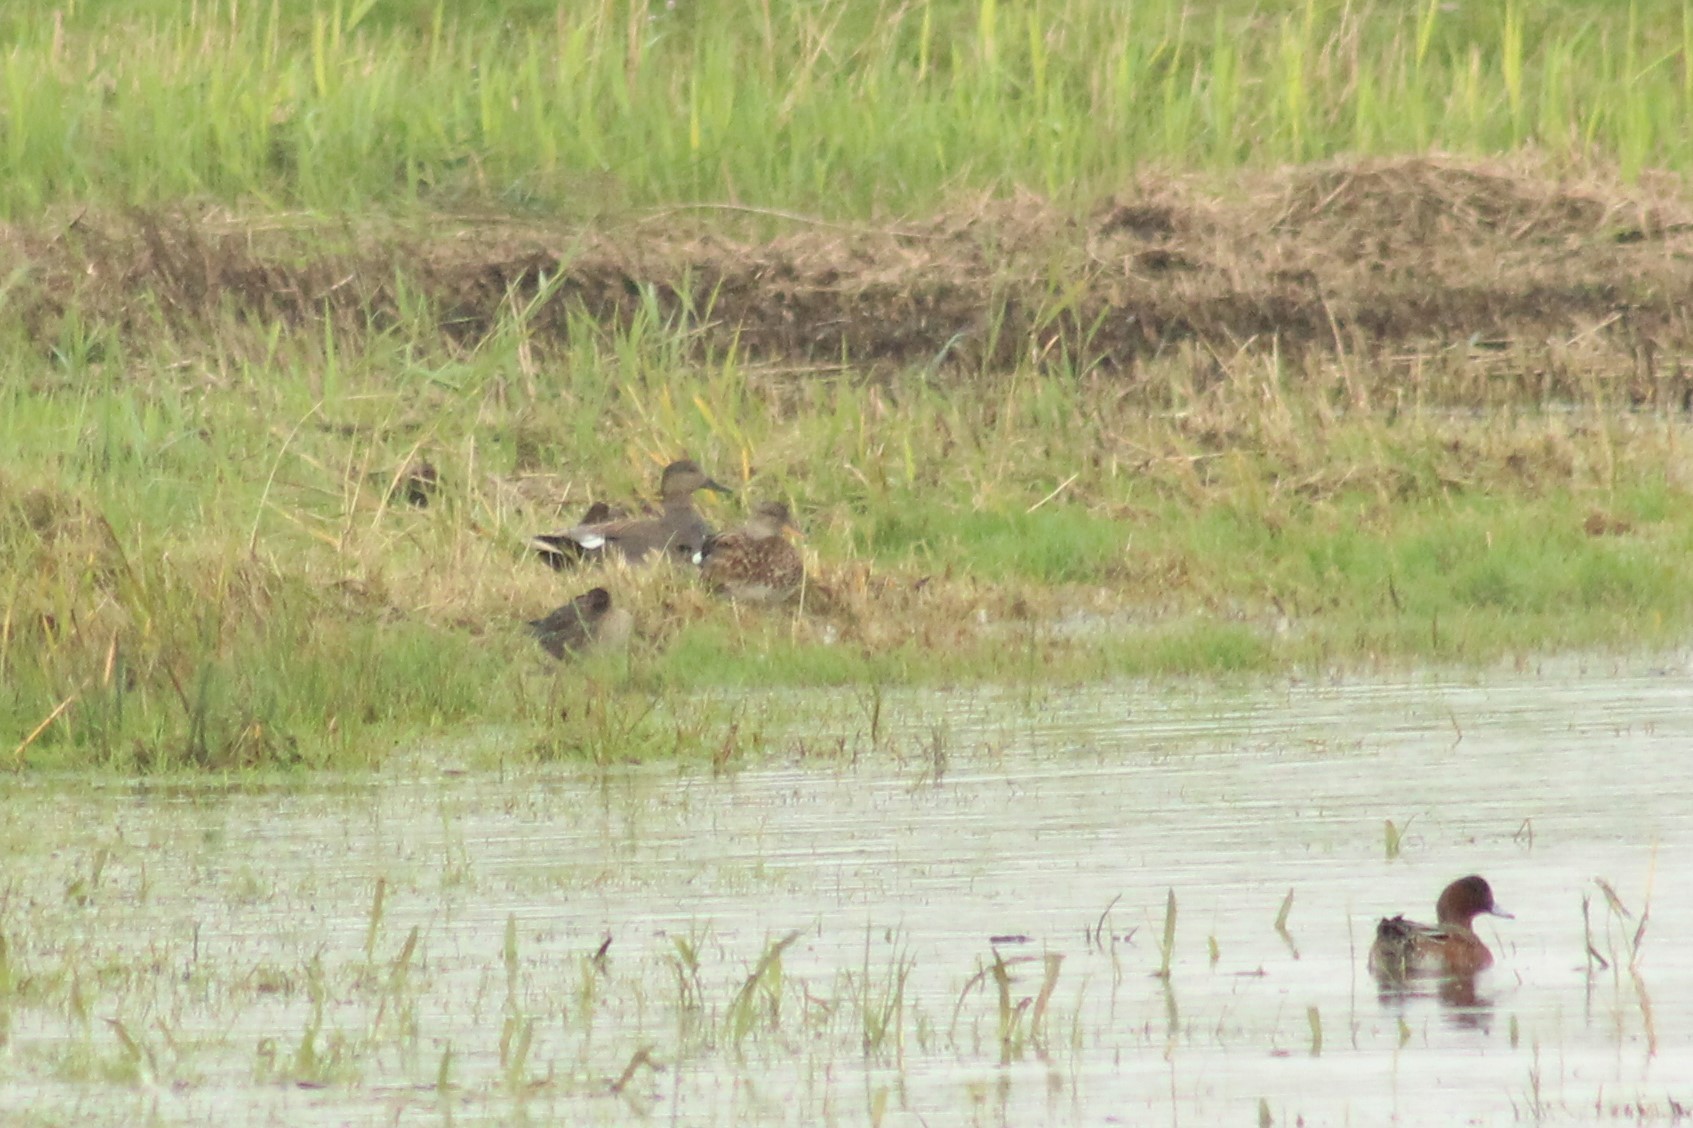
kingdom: Animalia
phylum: Chordata
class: Aves
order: Anseriformes
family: Anatidae
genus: Mareca
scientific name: Mareca strepera
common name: Gadwall
